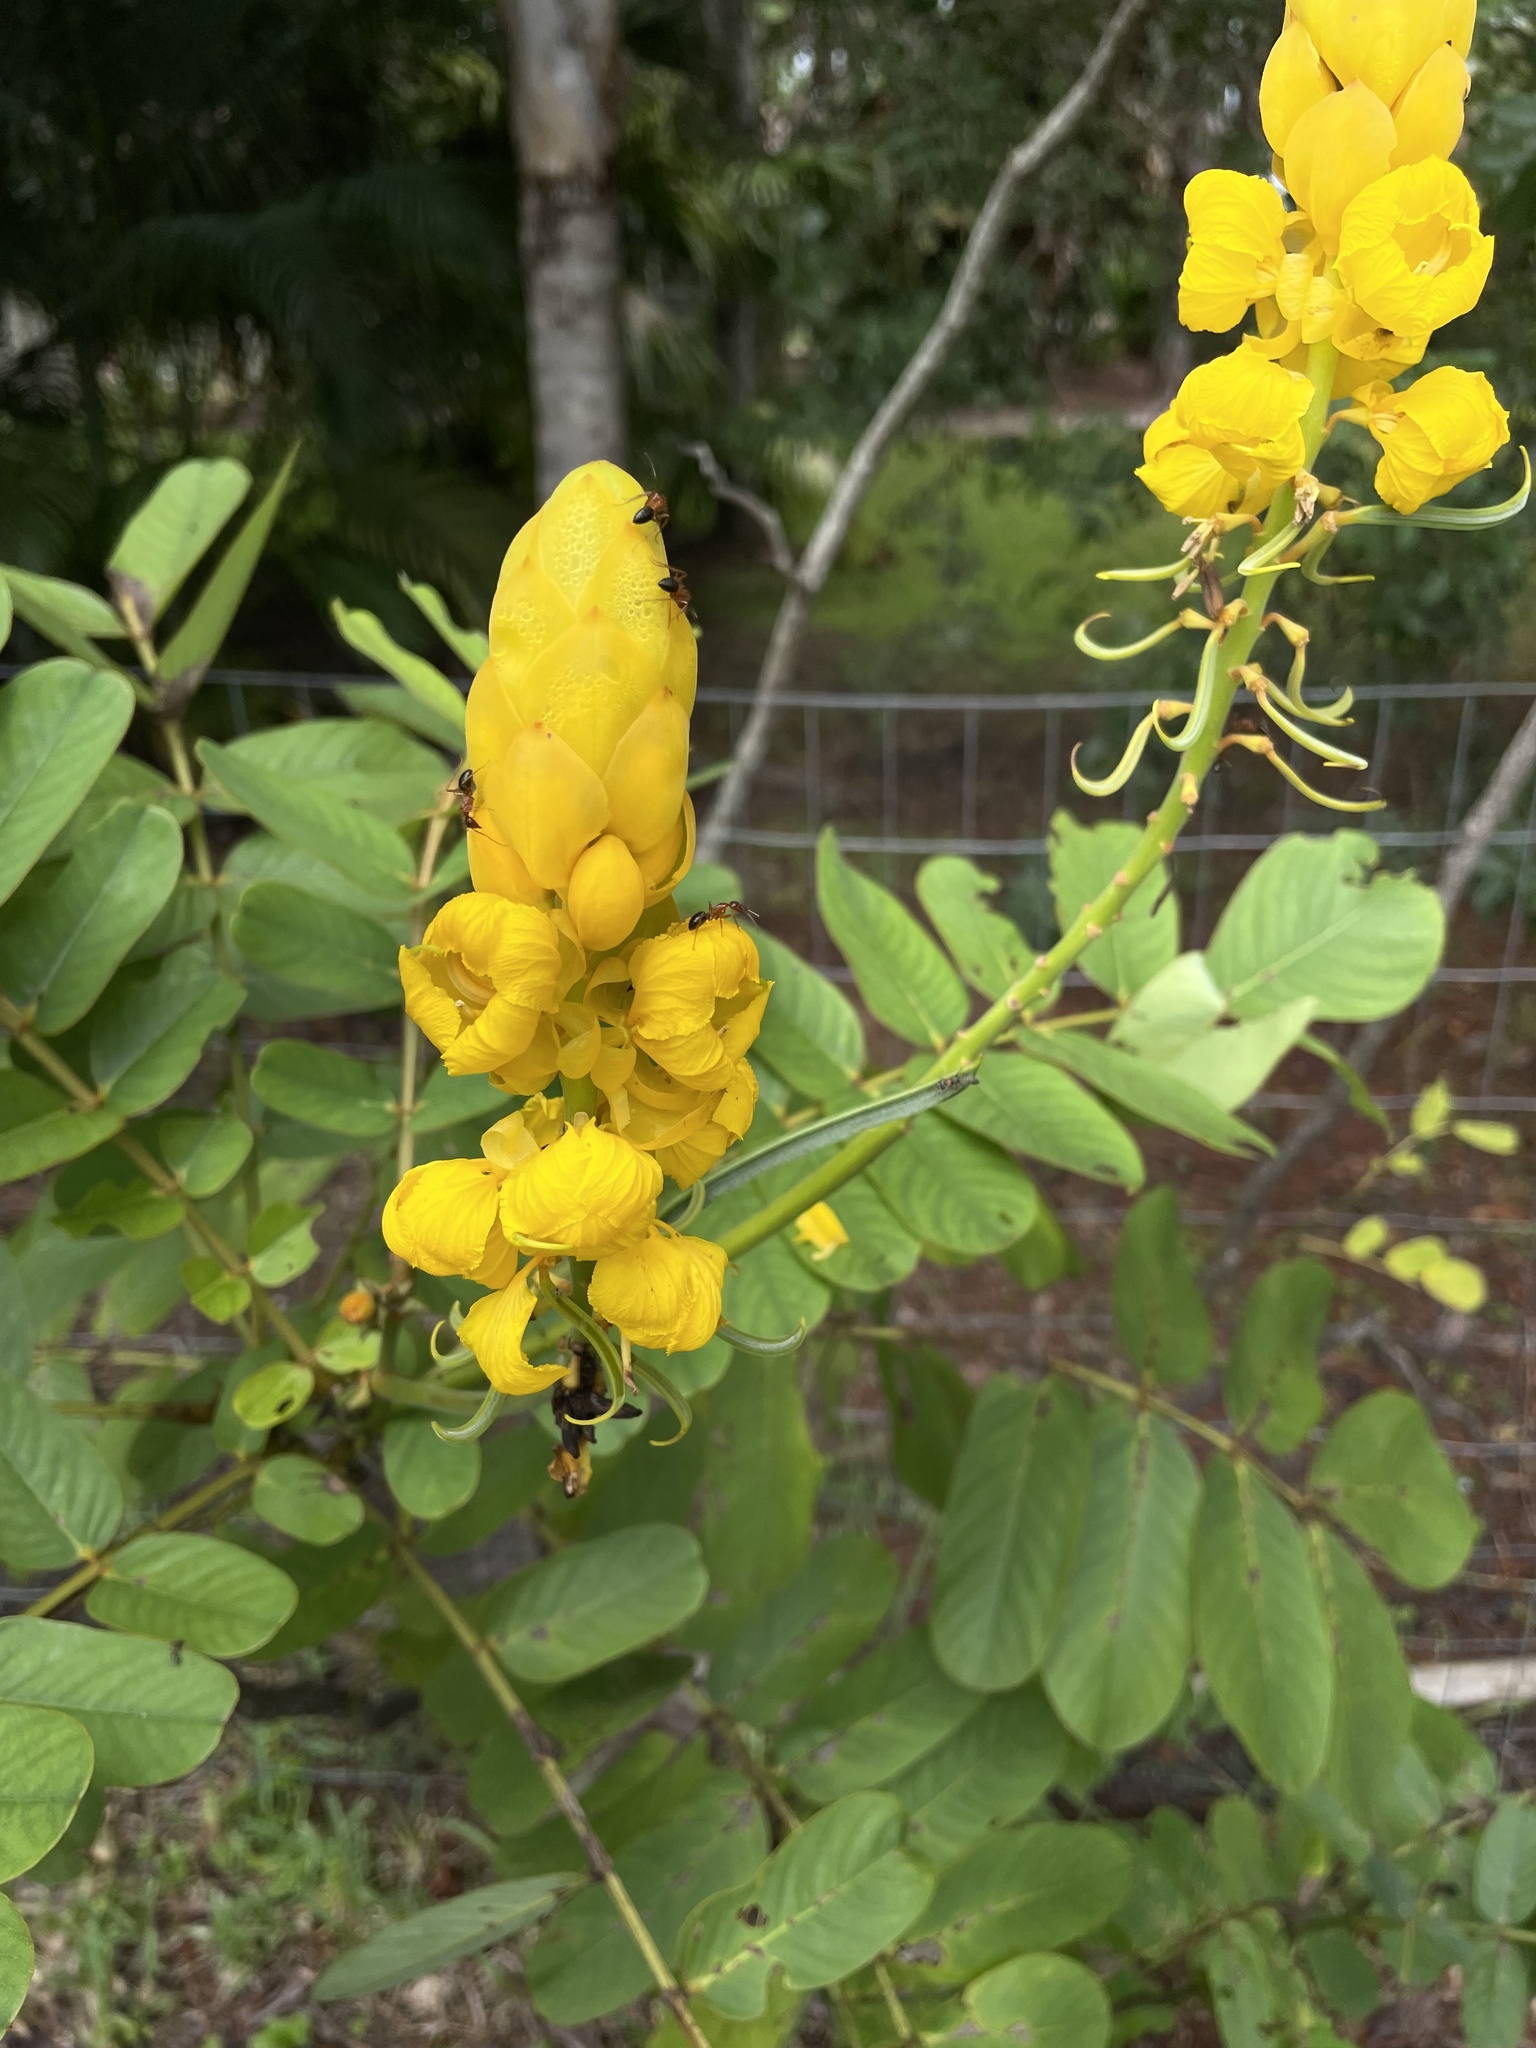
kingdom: Plantae
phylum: Tracheophyta
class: Magnoliopsida
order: Fabales
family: Fabaceae
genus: Senna
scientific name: Senna alata
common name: Emperor's candlesticks
